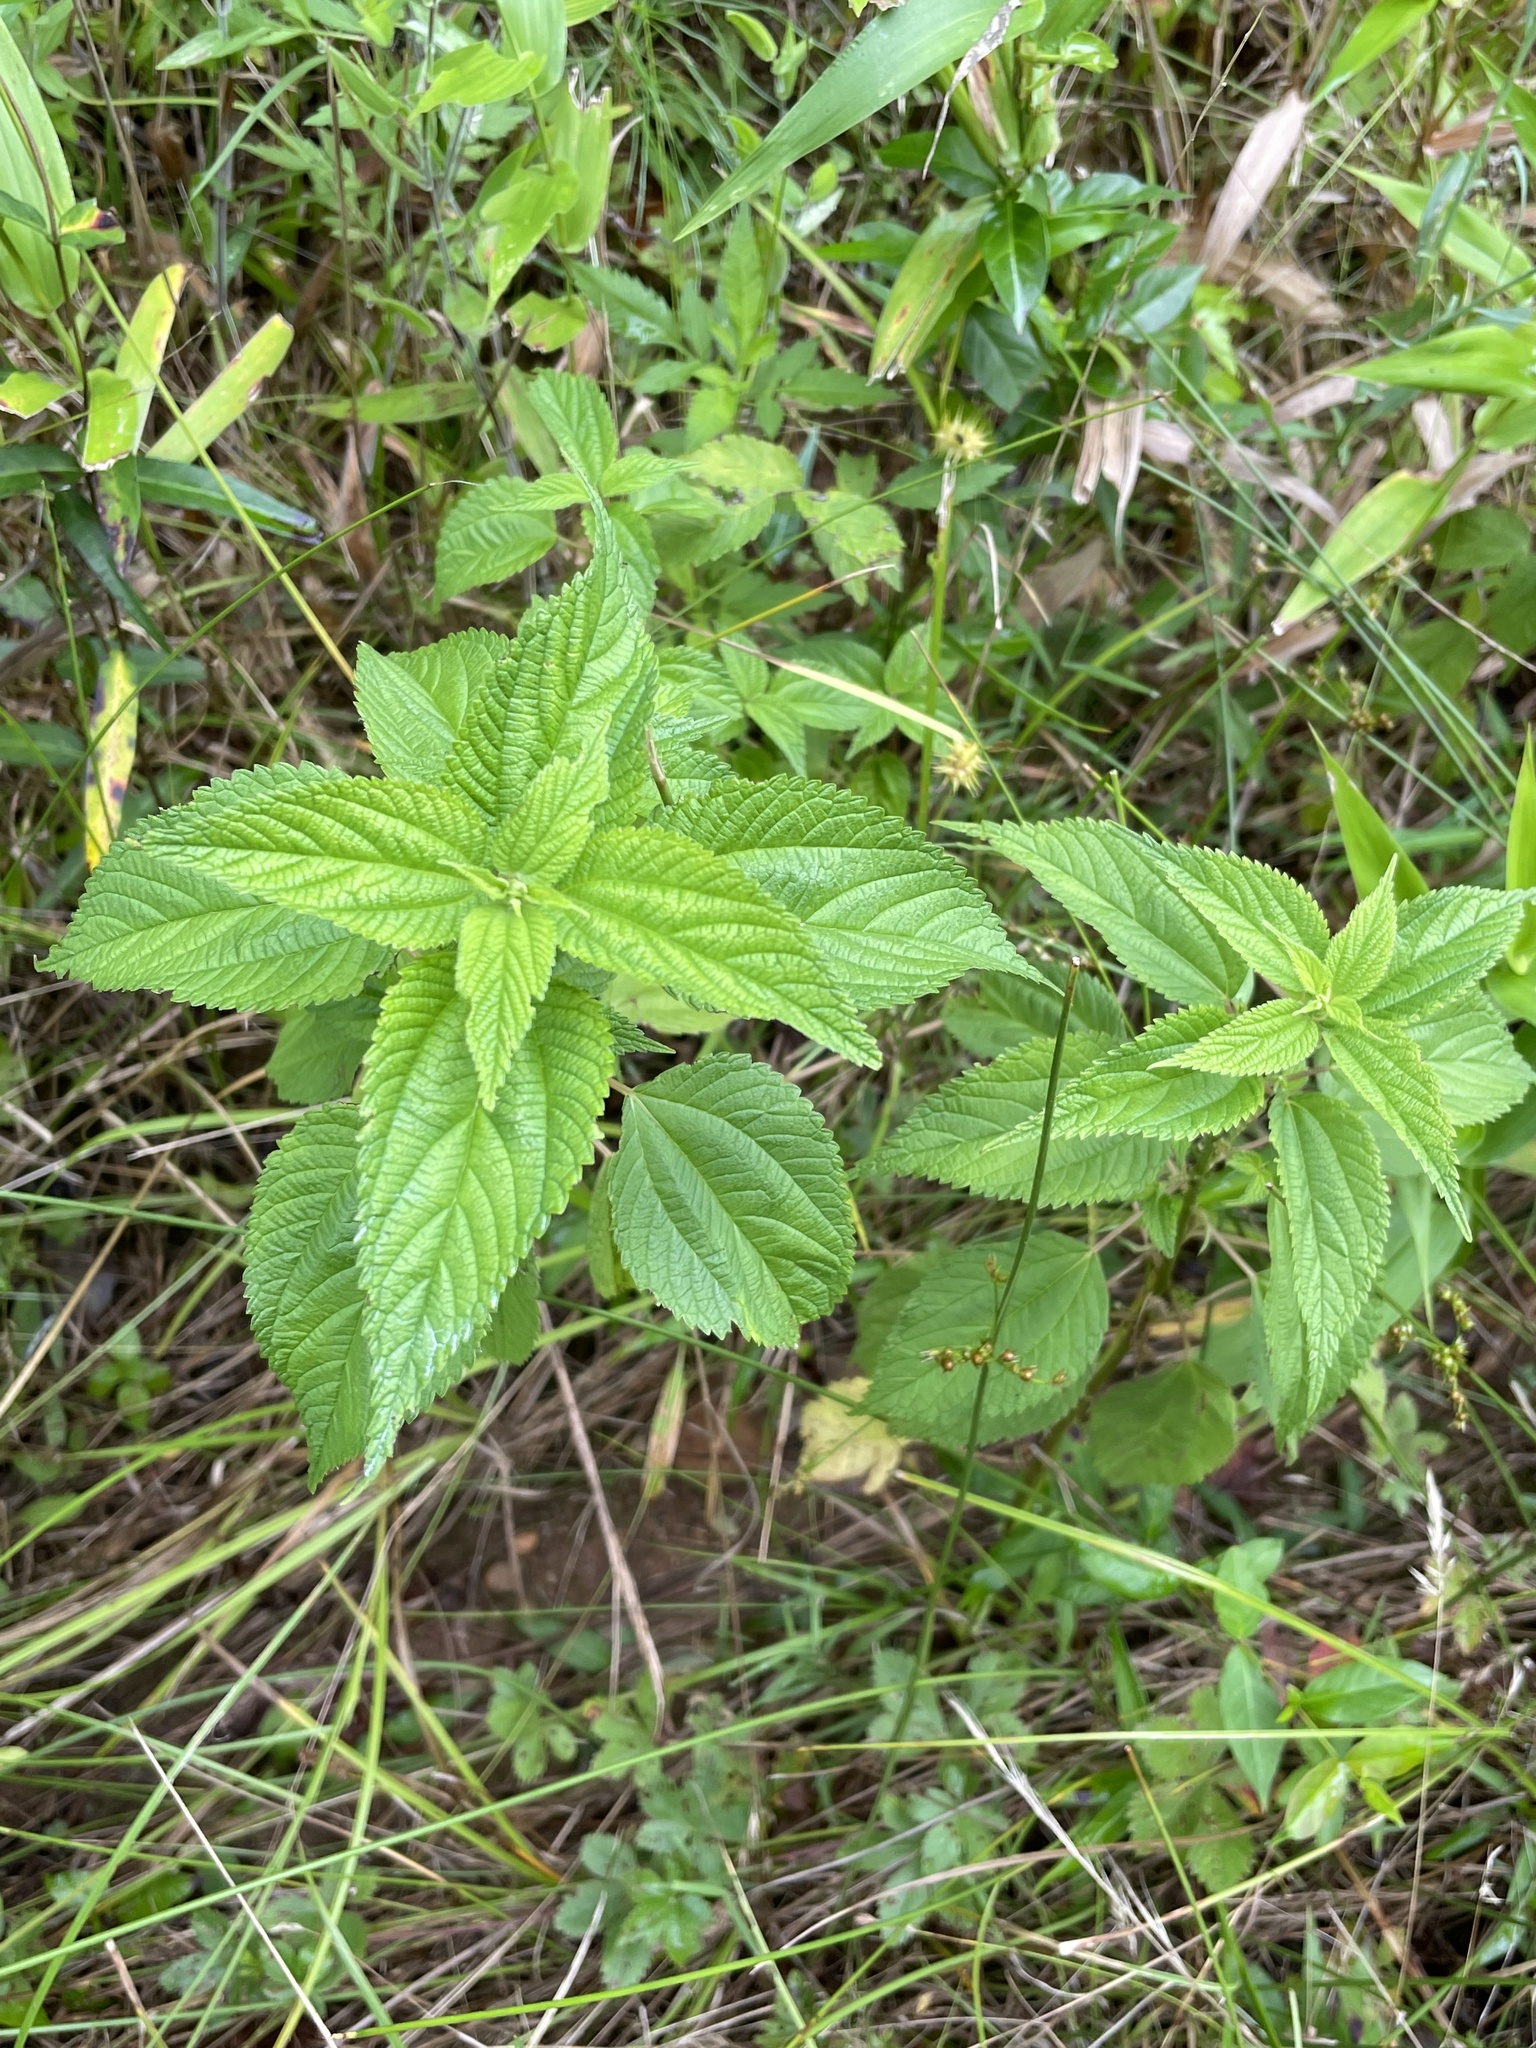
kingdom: Plantae
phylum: Tracheophyta
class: Magnoliopsida
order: Rosales
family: Urticaceae
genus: Boehmeria
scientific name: Boehmeria cylindrica
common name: Bog-hemp
